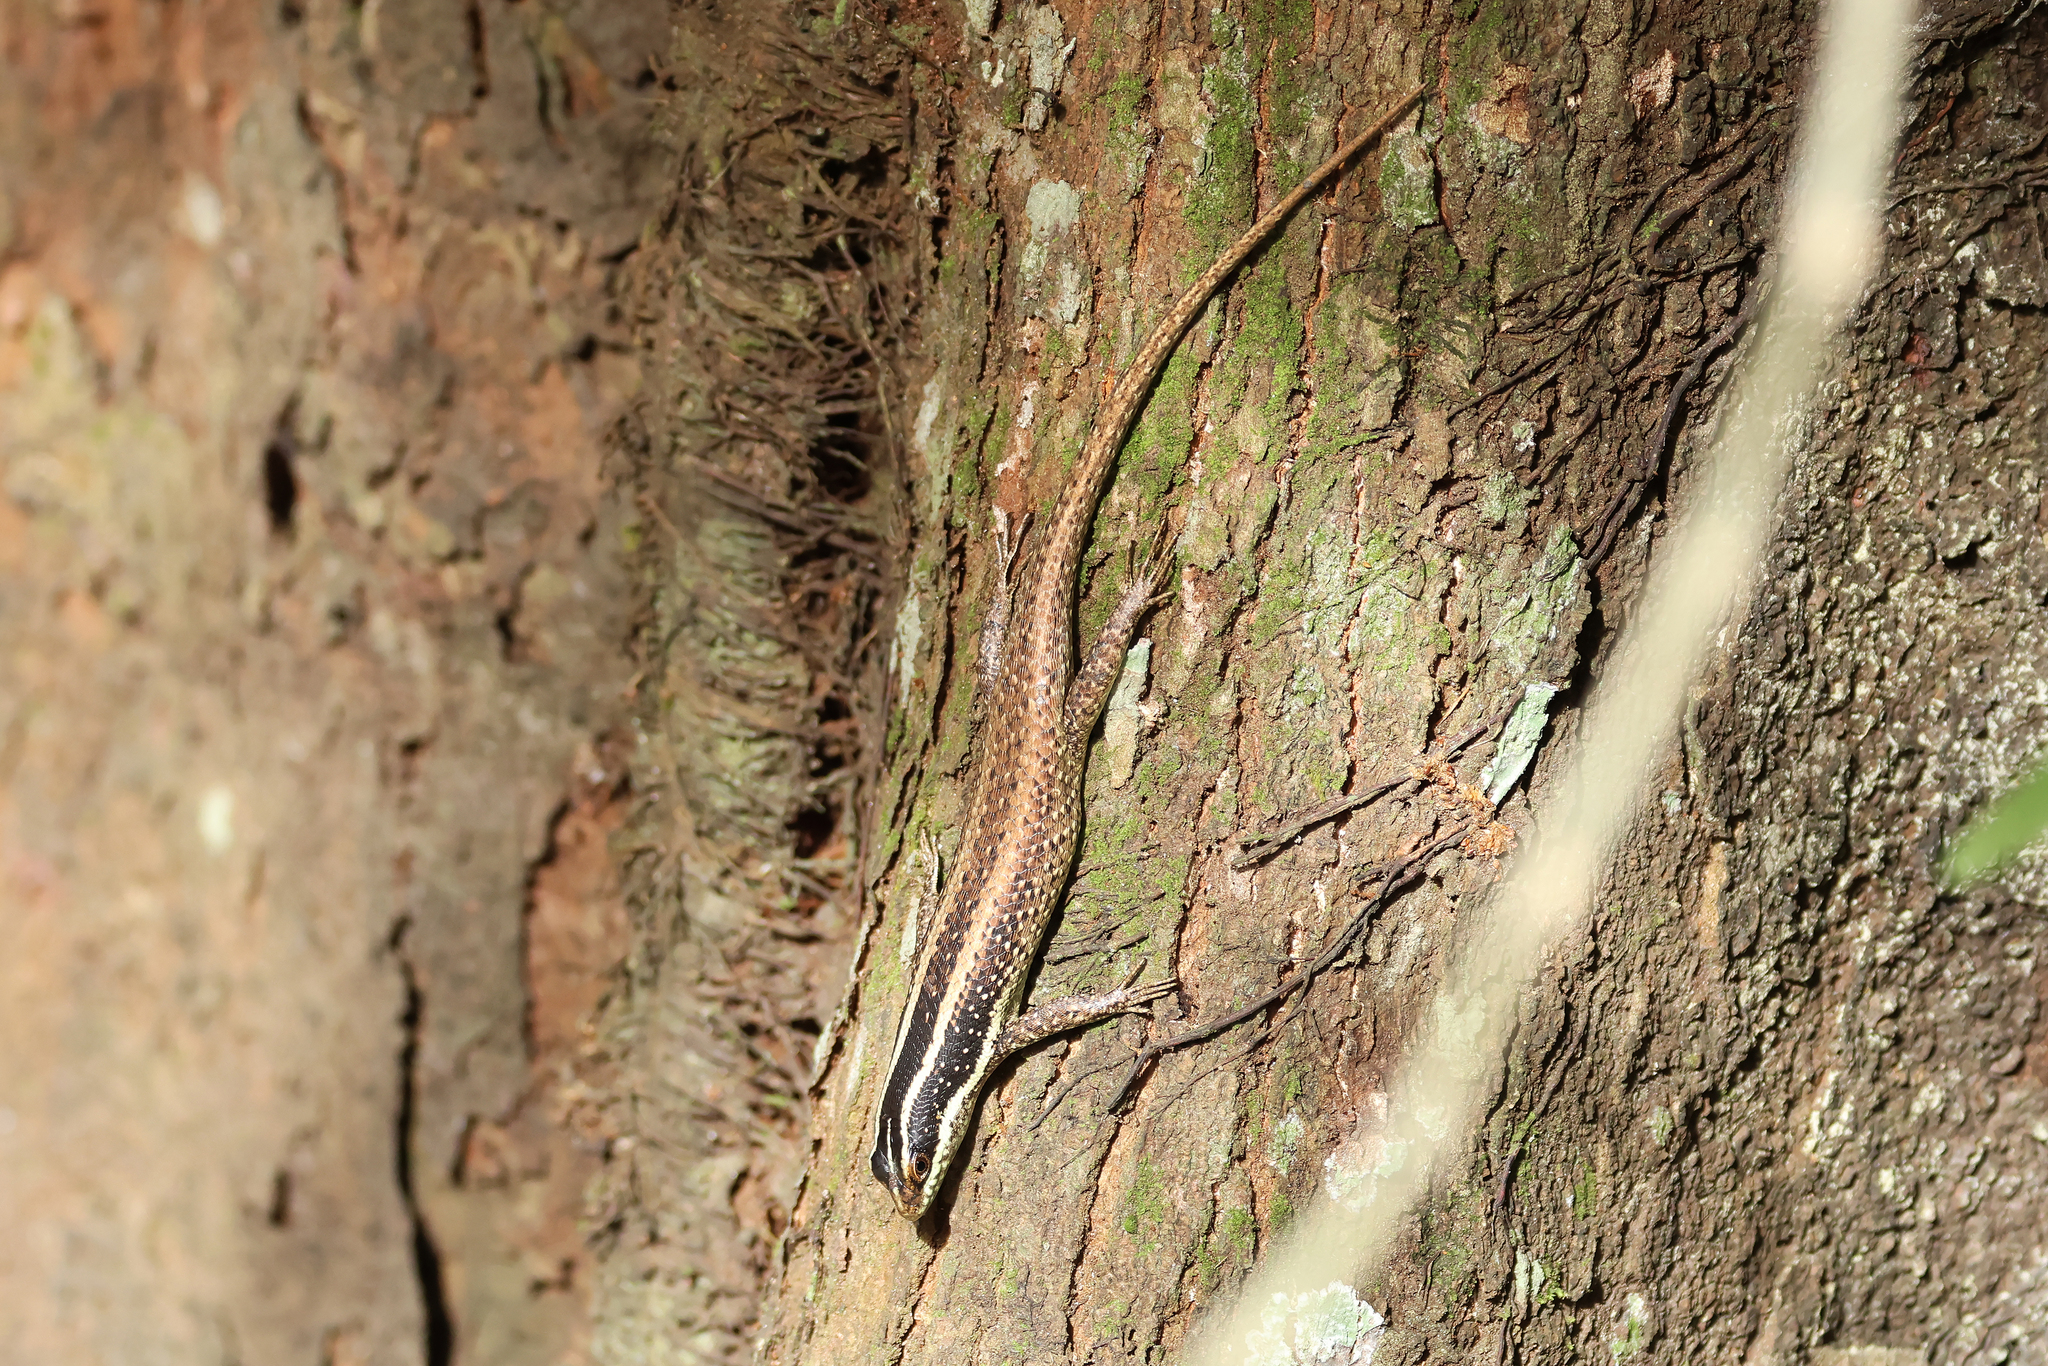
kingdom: Animalia
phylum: Chordata
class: Squamata
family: Scincidae
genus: Dasia
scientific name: Dasia vittata
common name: Borneo skink
